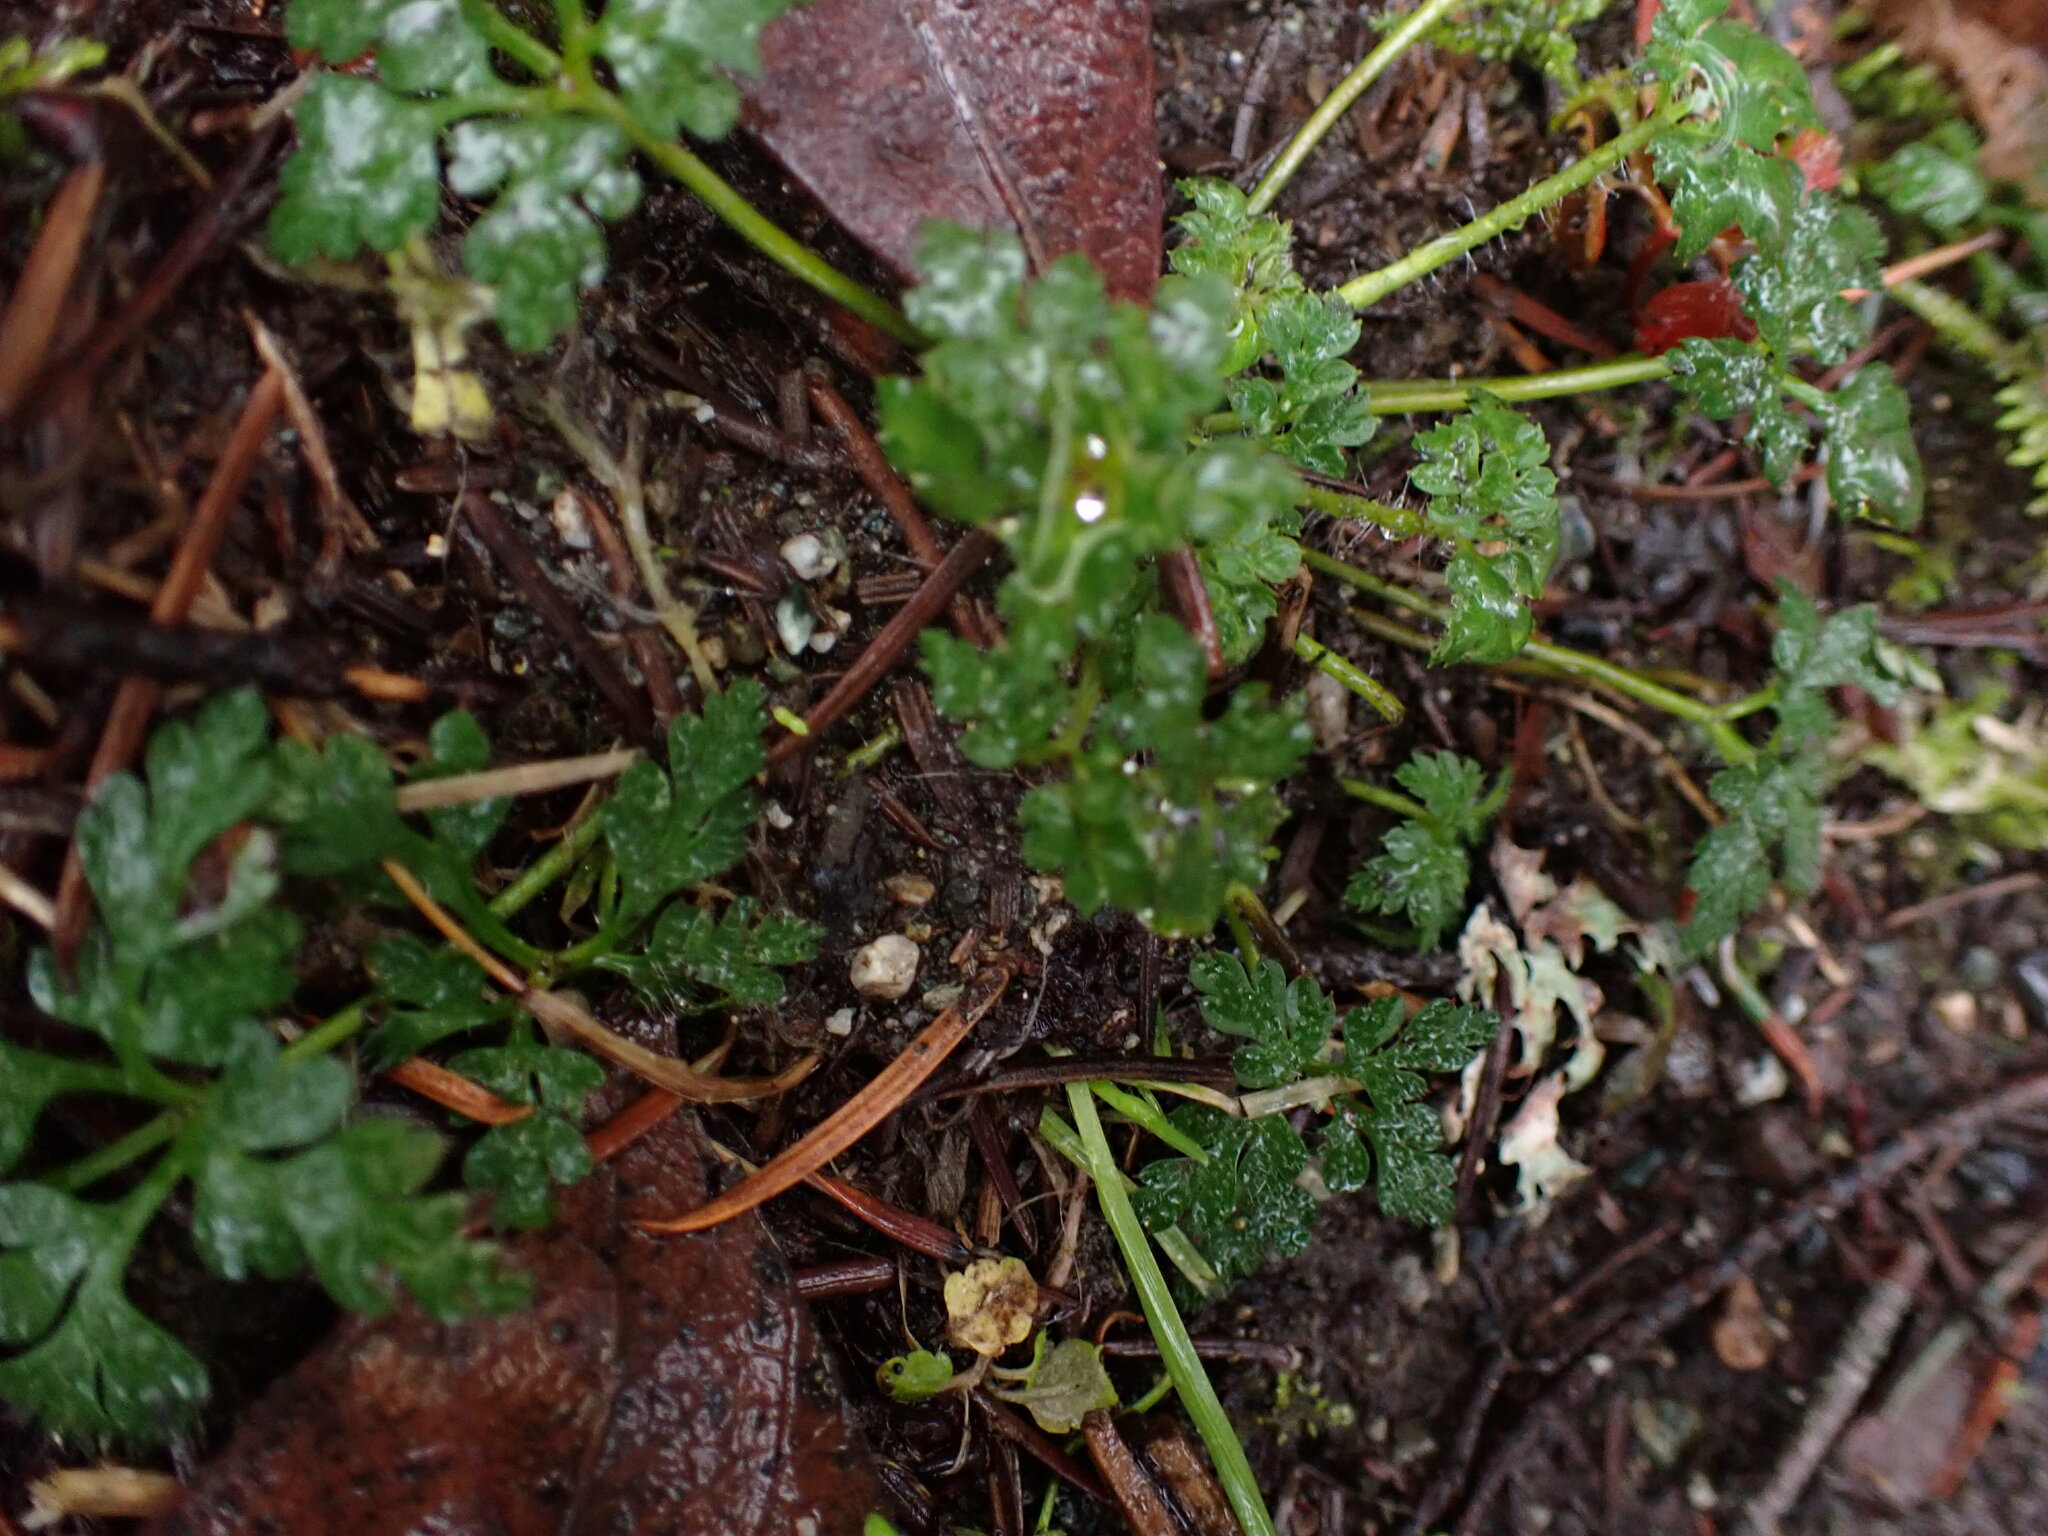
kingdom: Plantae
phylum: Tracheophyta
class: Magnoliopsida
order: Geraniales
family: Geraniaceae
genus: Geranium
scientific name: Geranium robertianum
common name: Herb-robert
